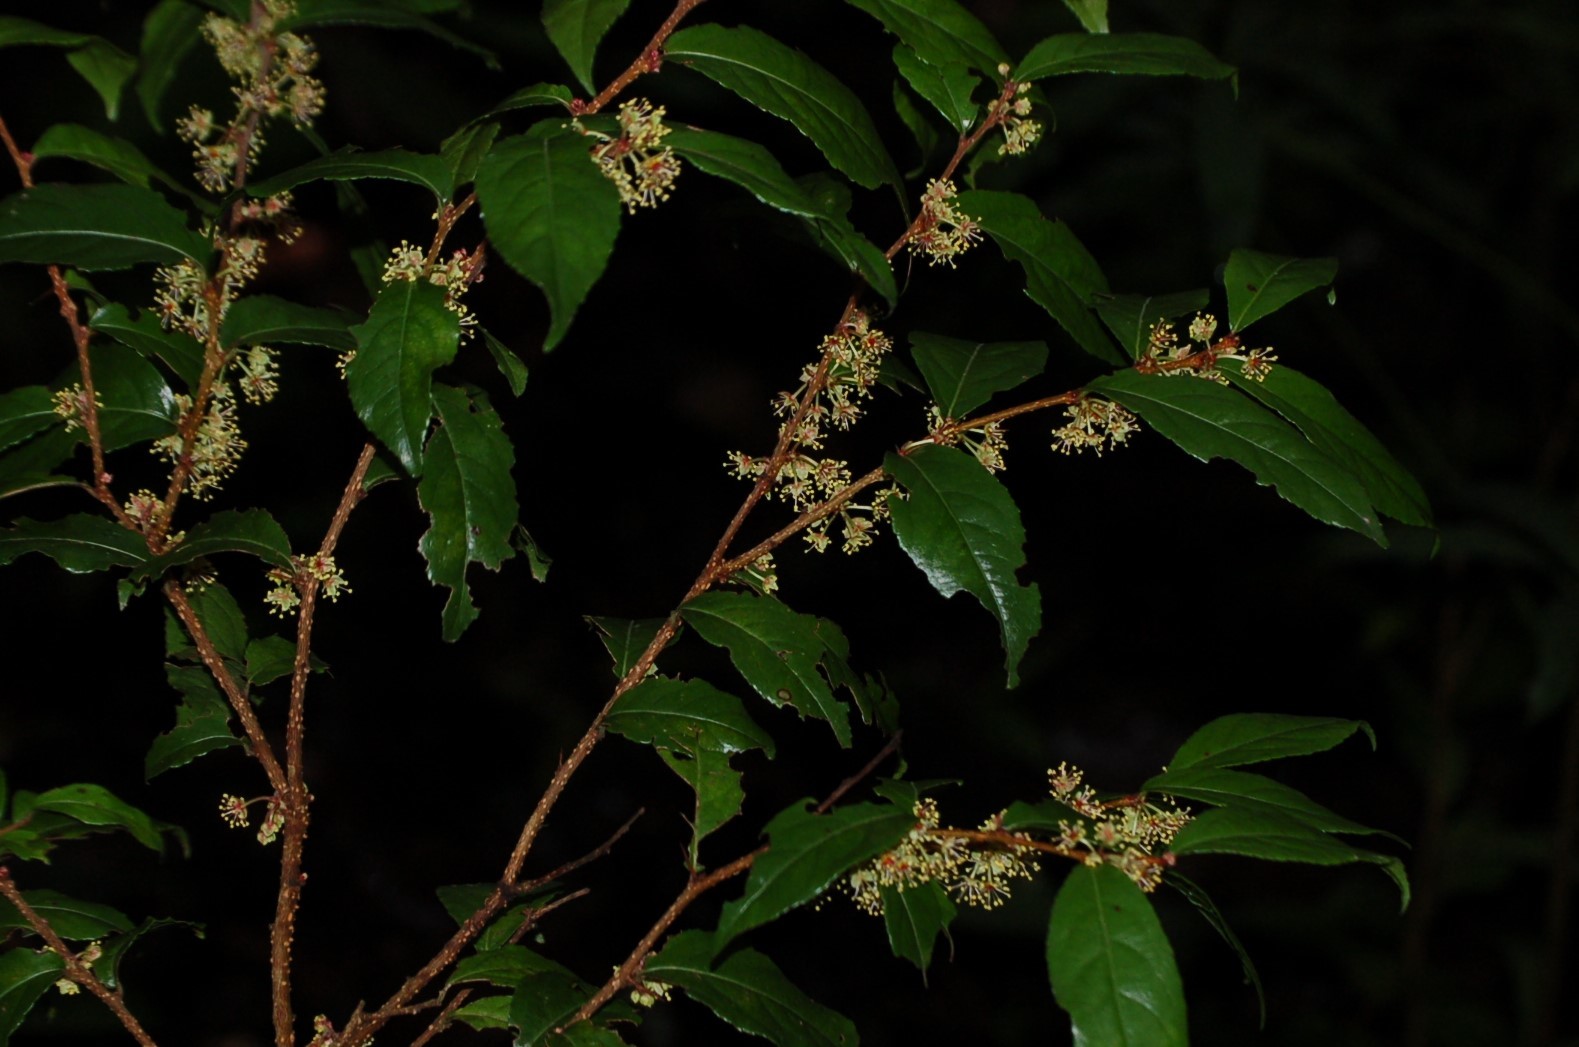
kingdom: Plantae
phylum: Tracheophyta
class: Magnoliopsida
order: Malpighiales
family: Salicaceae
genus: Xylosma
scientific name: Xylosma quichensis
